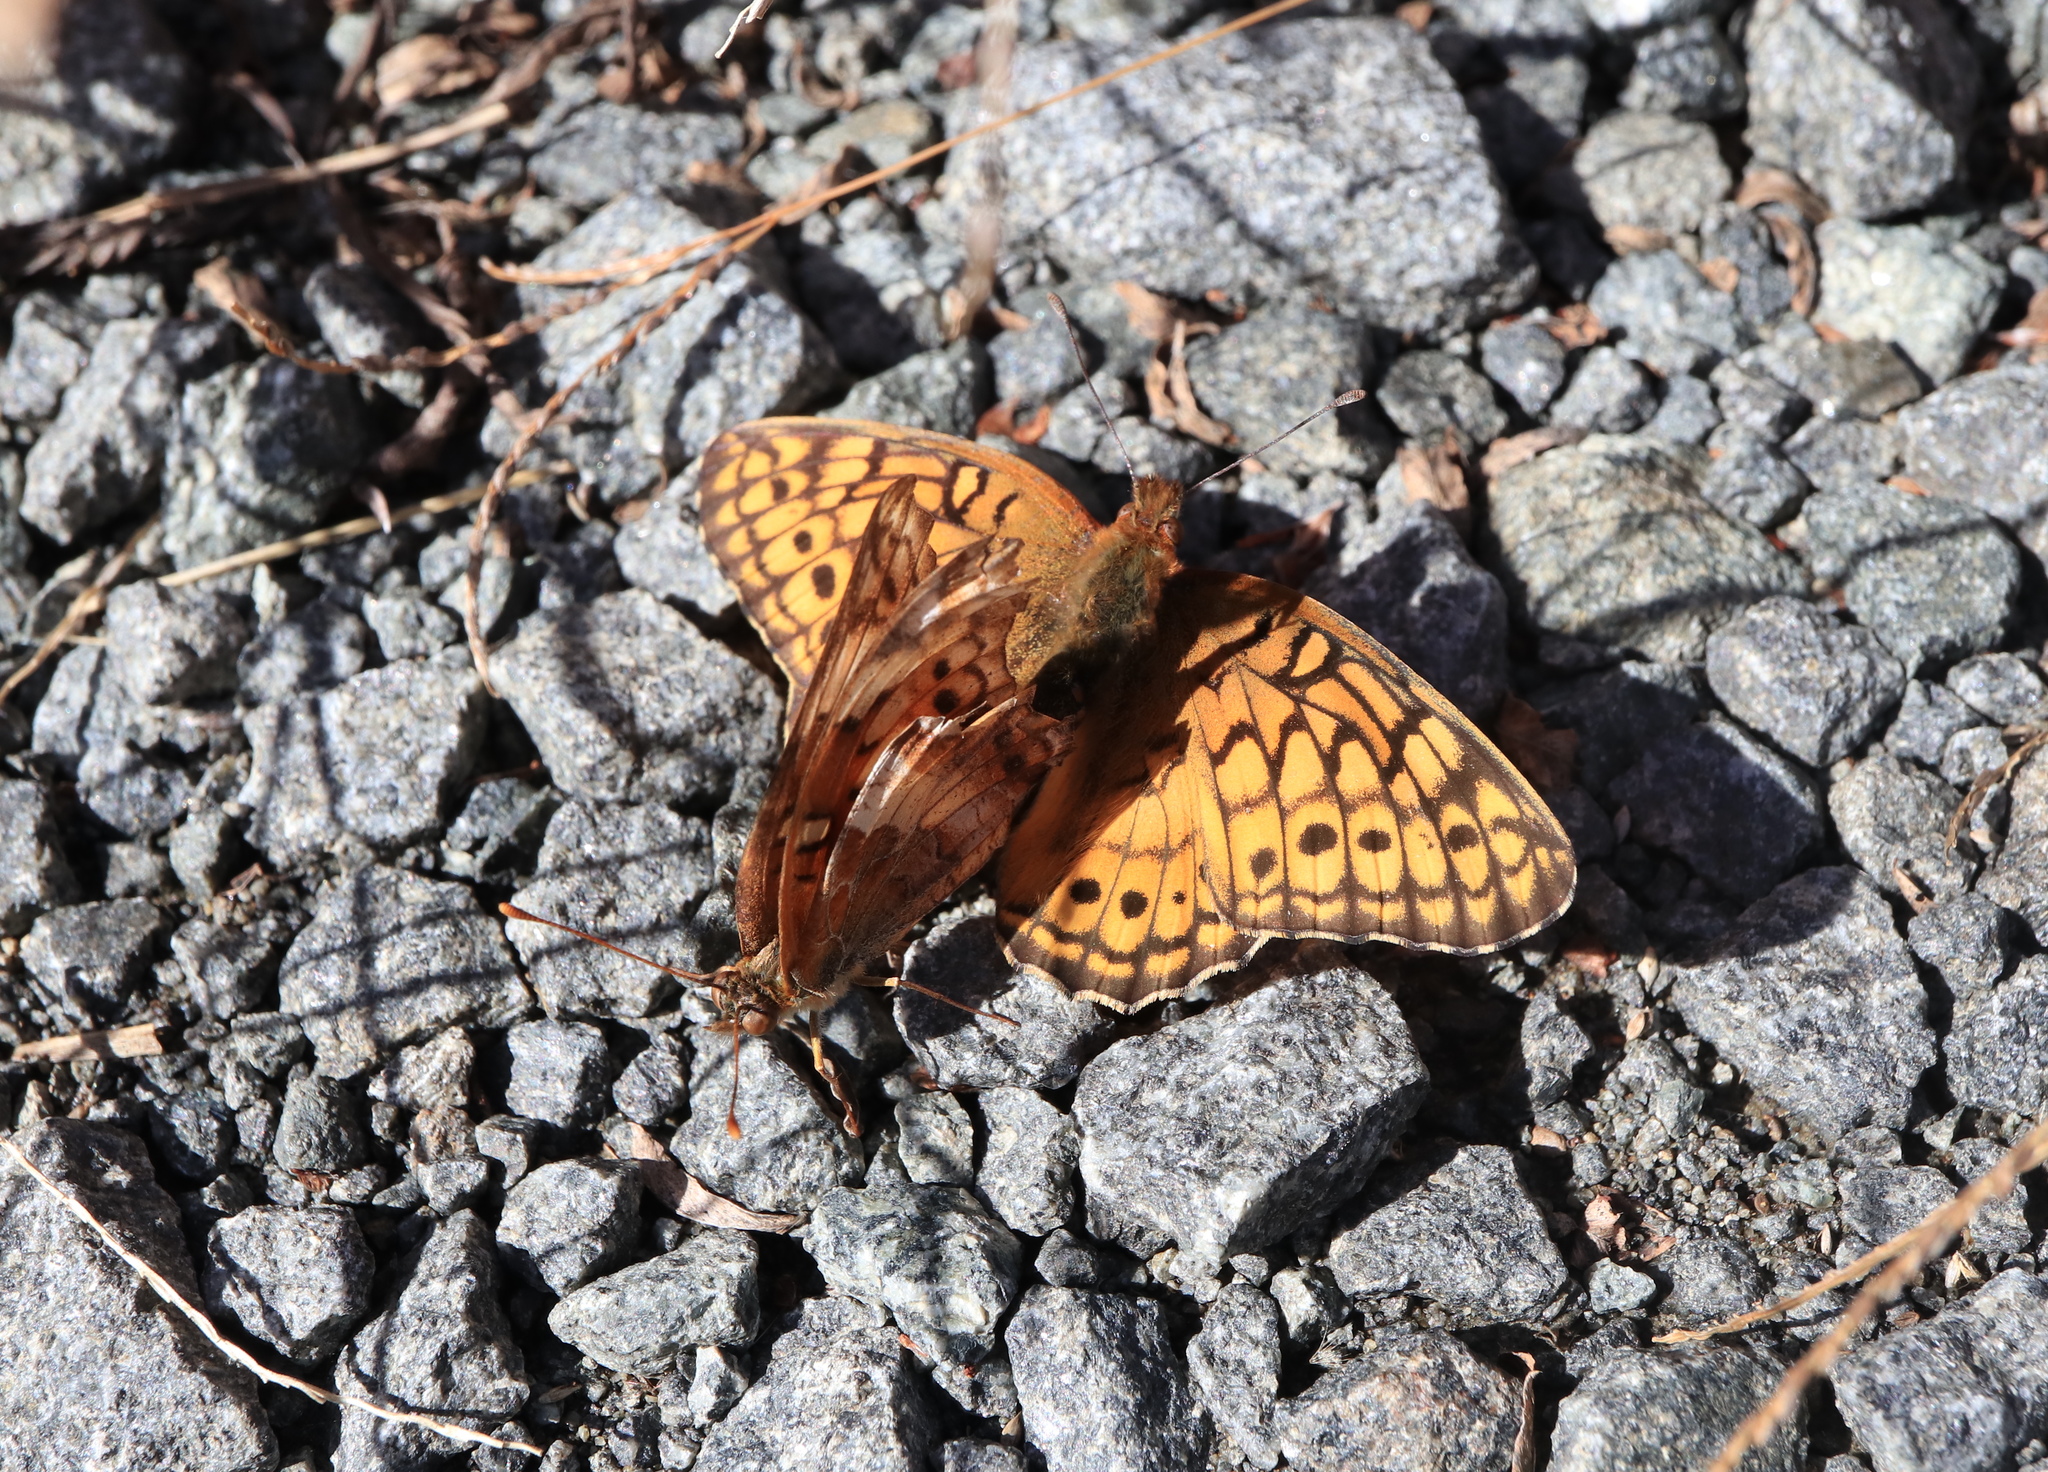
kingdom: Animalia
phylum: Arthropoda
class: Insecta
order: Lepidoptera
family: Nymphalidae
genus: Euptoieta
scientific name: Euptoieta claudia
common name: Variegated fritillary
